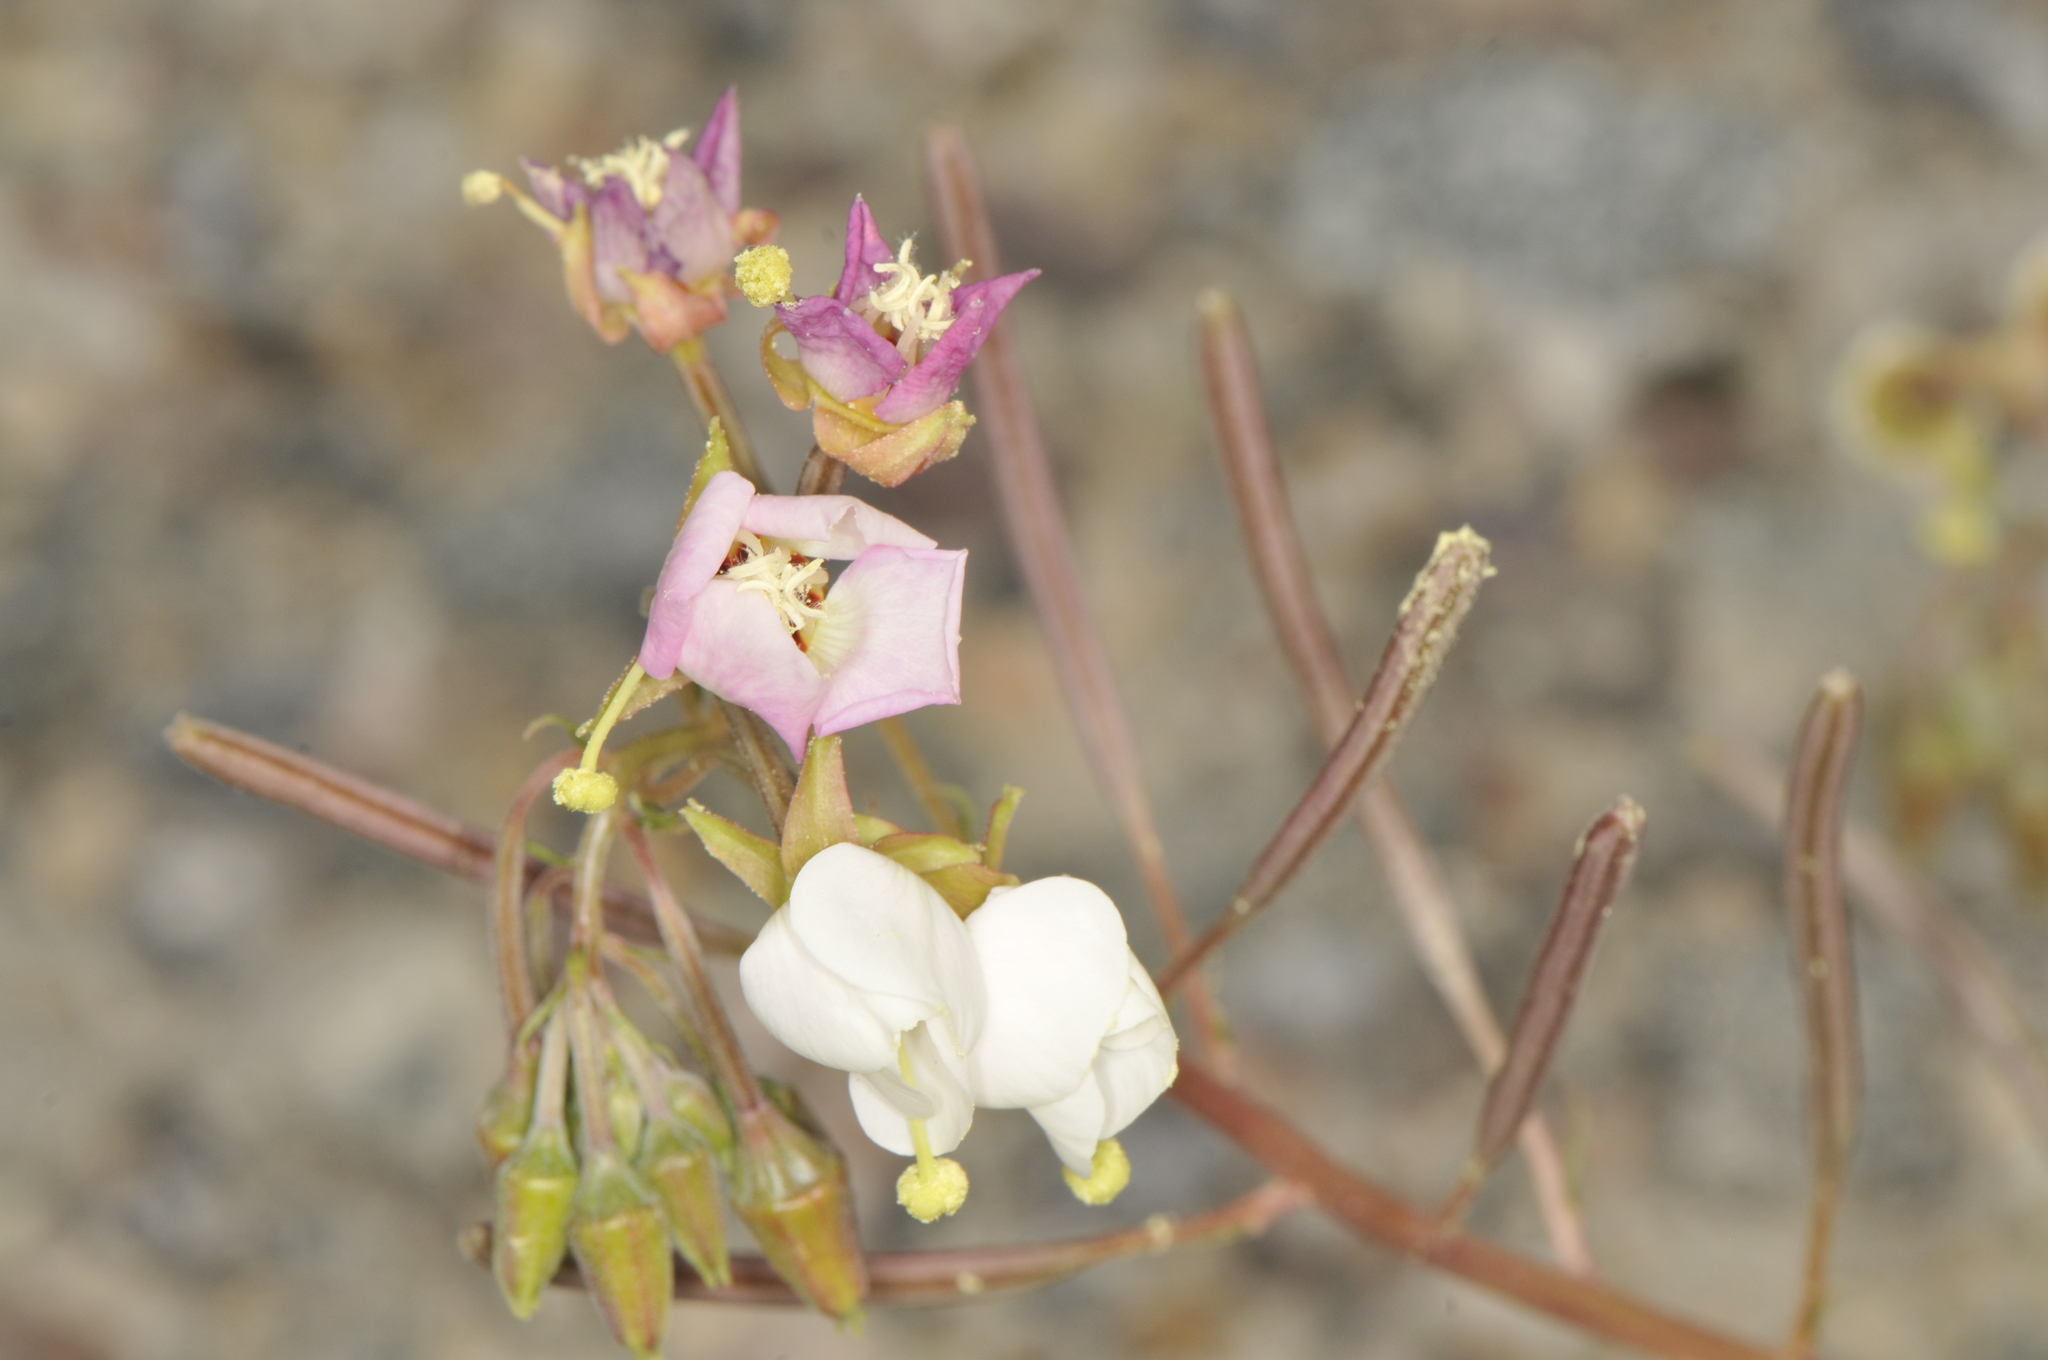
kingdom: Plantae
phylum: Tracheophyta
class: Magnoliopsida
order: Myrtales
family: Onagraceae
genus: Chylismia
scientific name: Chylismia claviformis
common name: Browneyes
